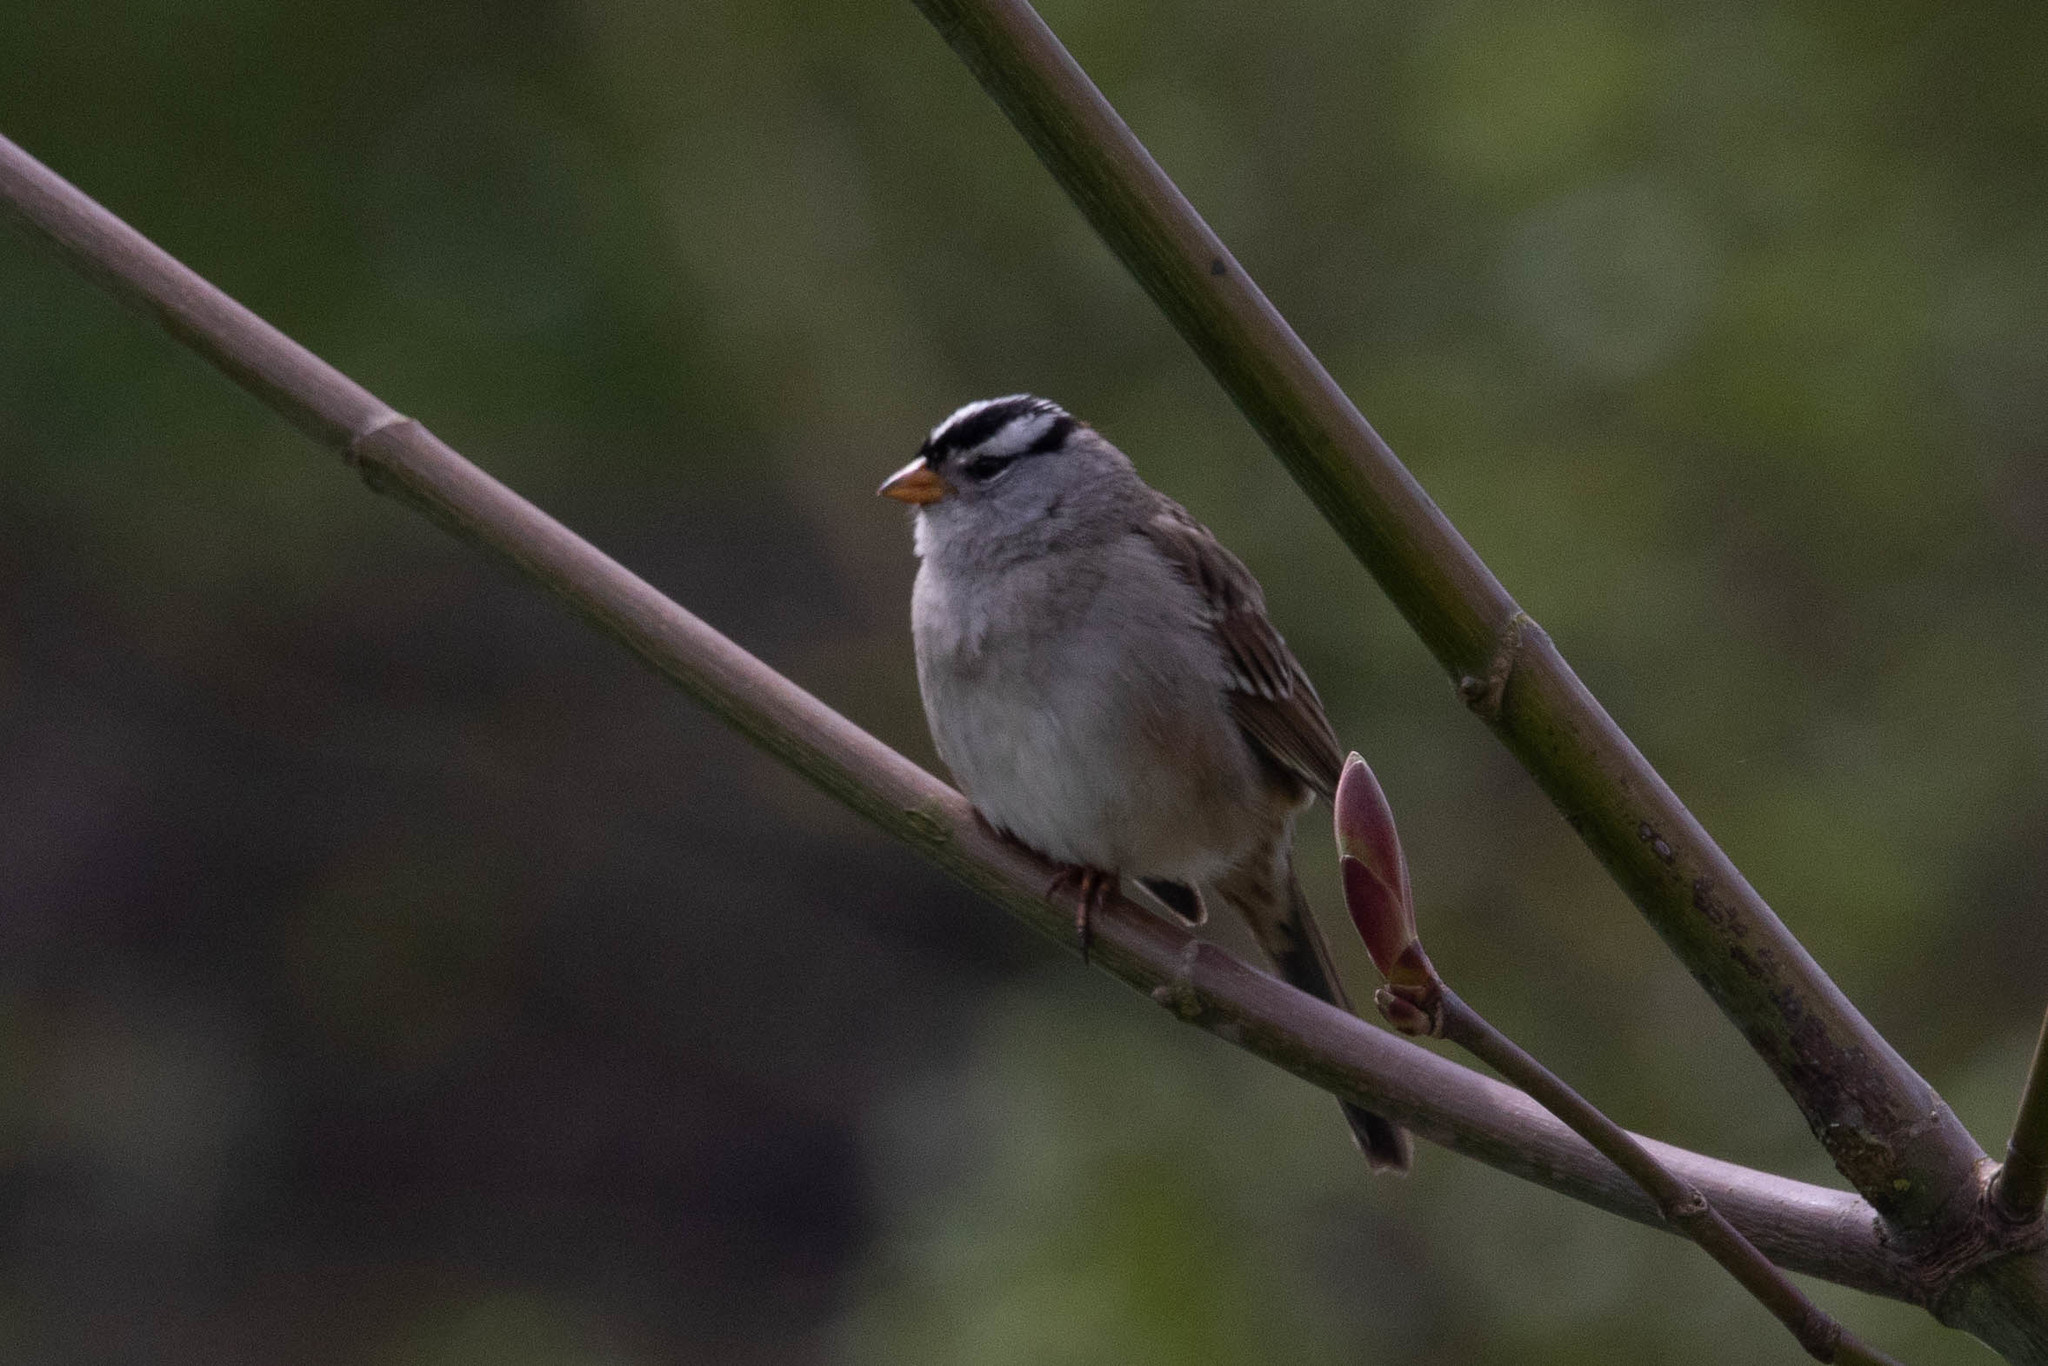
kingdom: Animalia
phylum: Chordata
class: Aves
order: Passeriformes
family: Passerellidae
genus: Zonotrichia
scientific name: Zonotrichia leucophrys
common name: White-crowned sparrow
